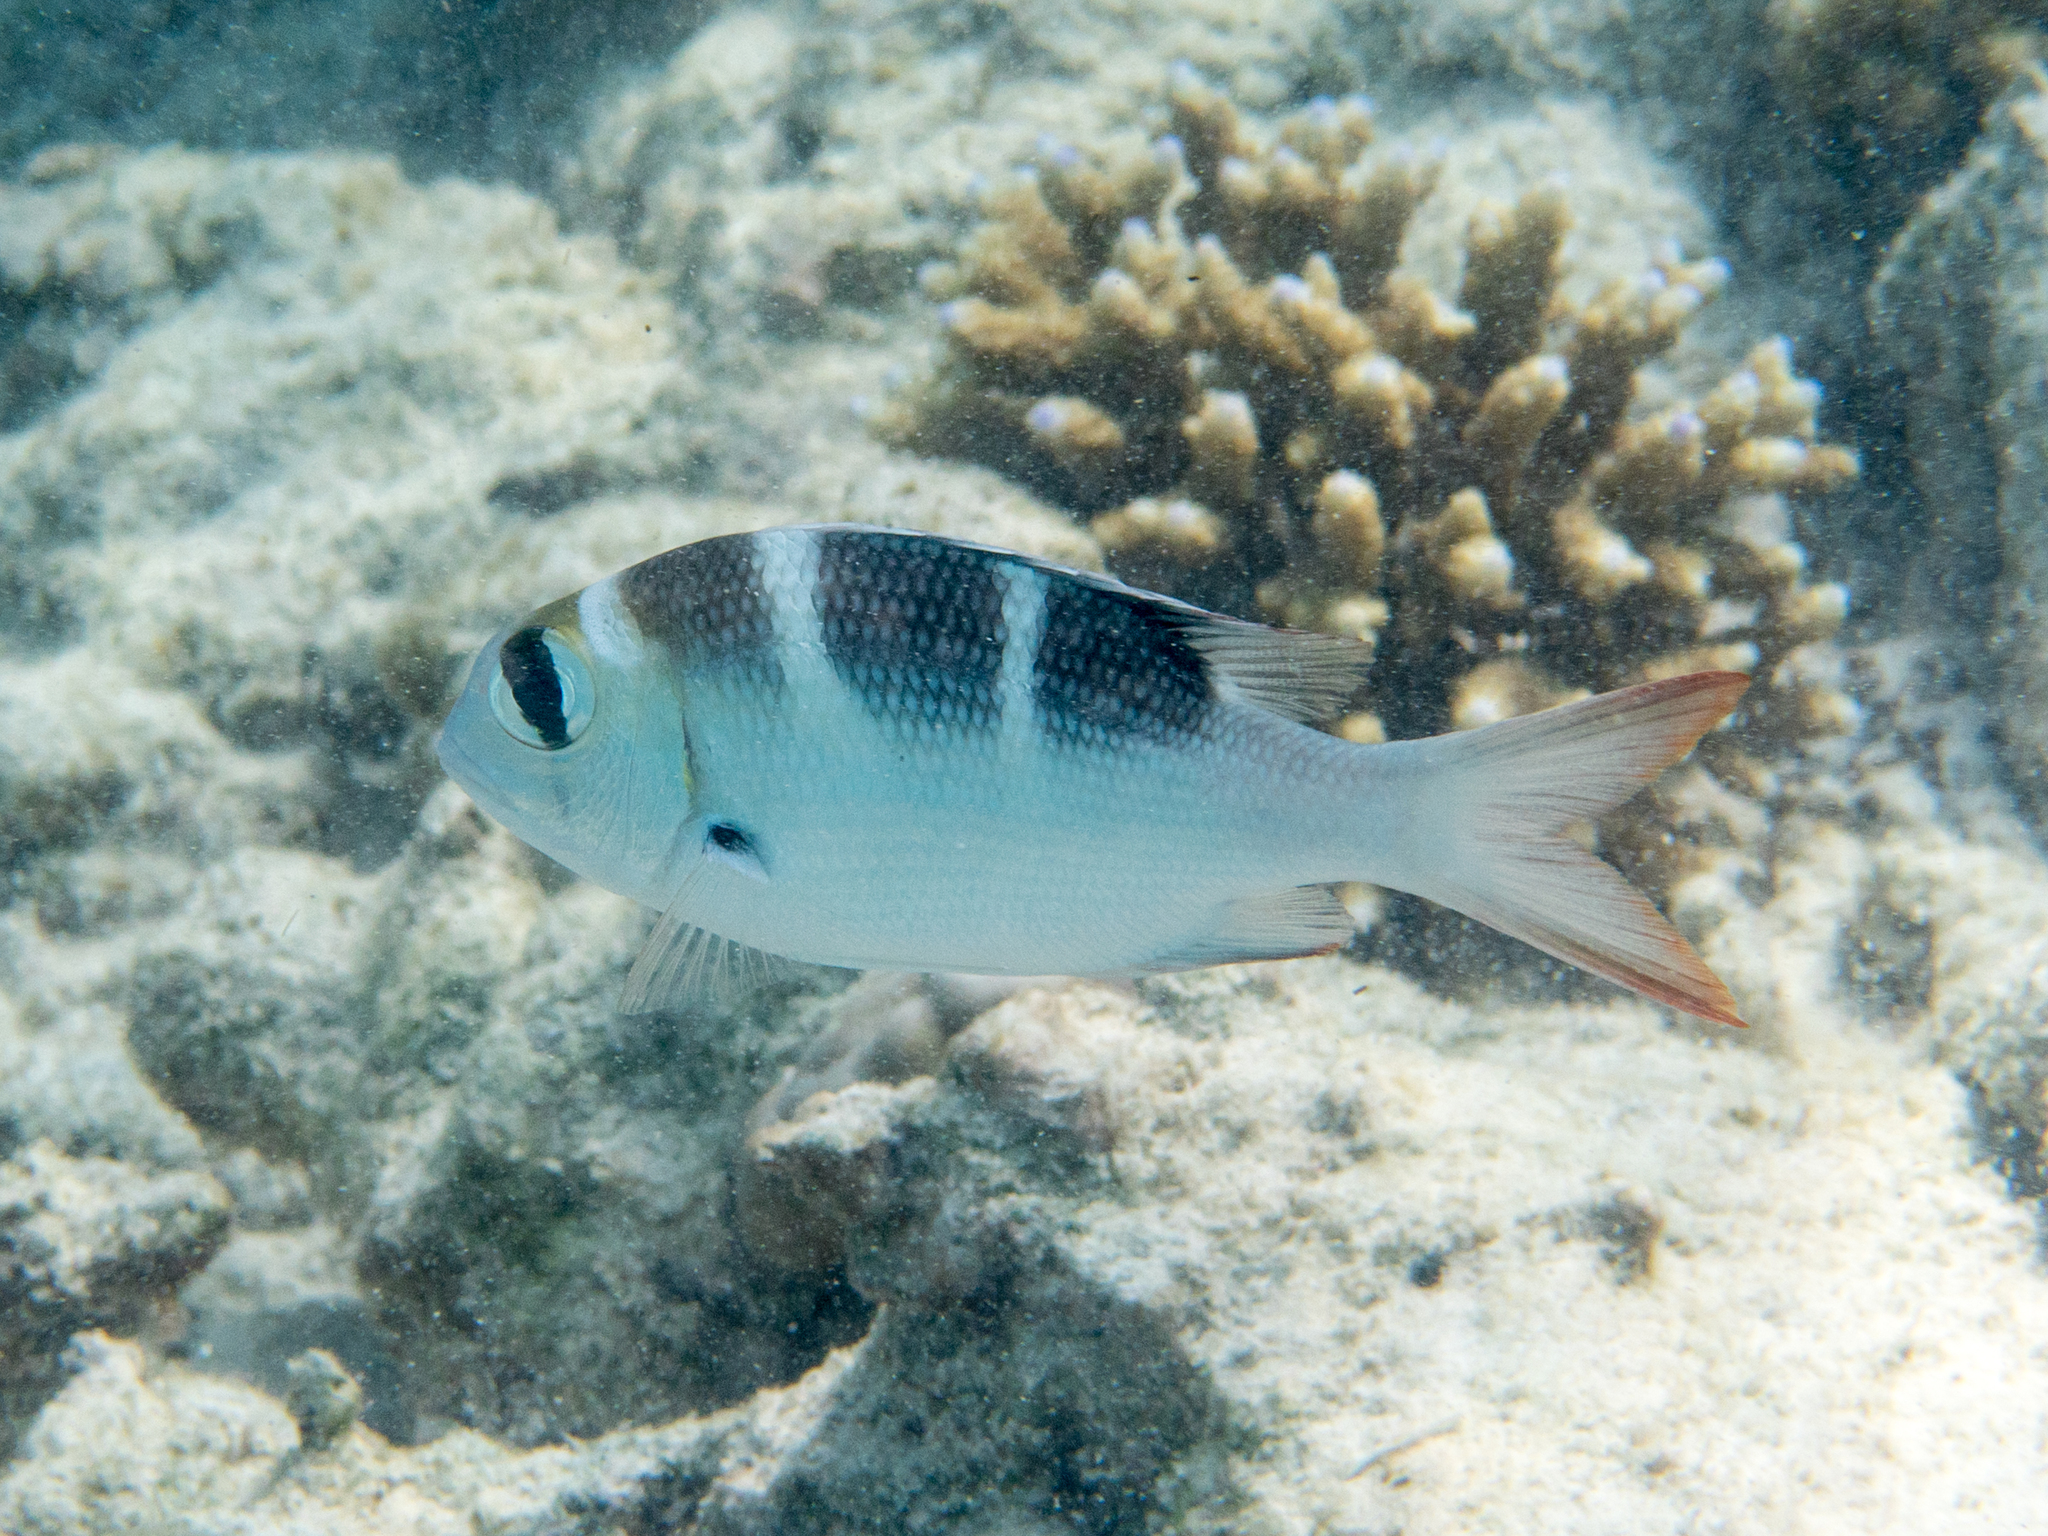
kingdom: Animalia
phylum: Chordata
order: Perciformes
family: Lethrinidae
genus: Monotaxis
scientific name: Monotaxis grandoculis
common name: Bigeye emperor
